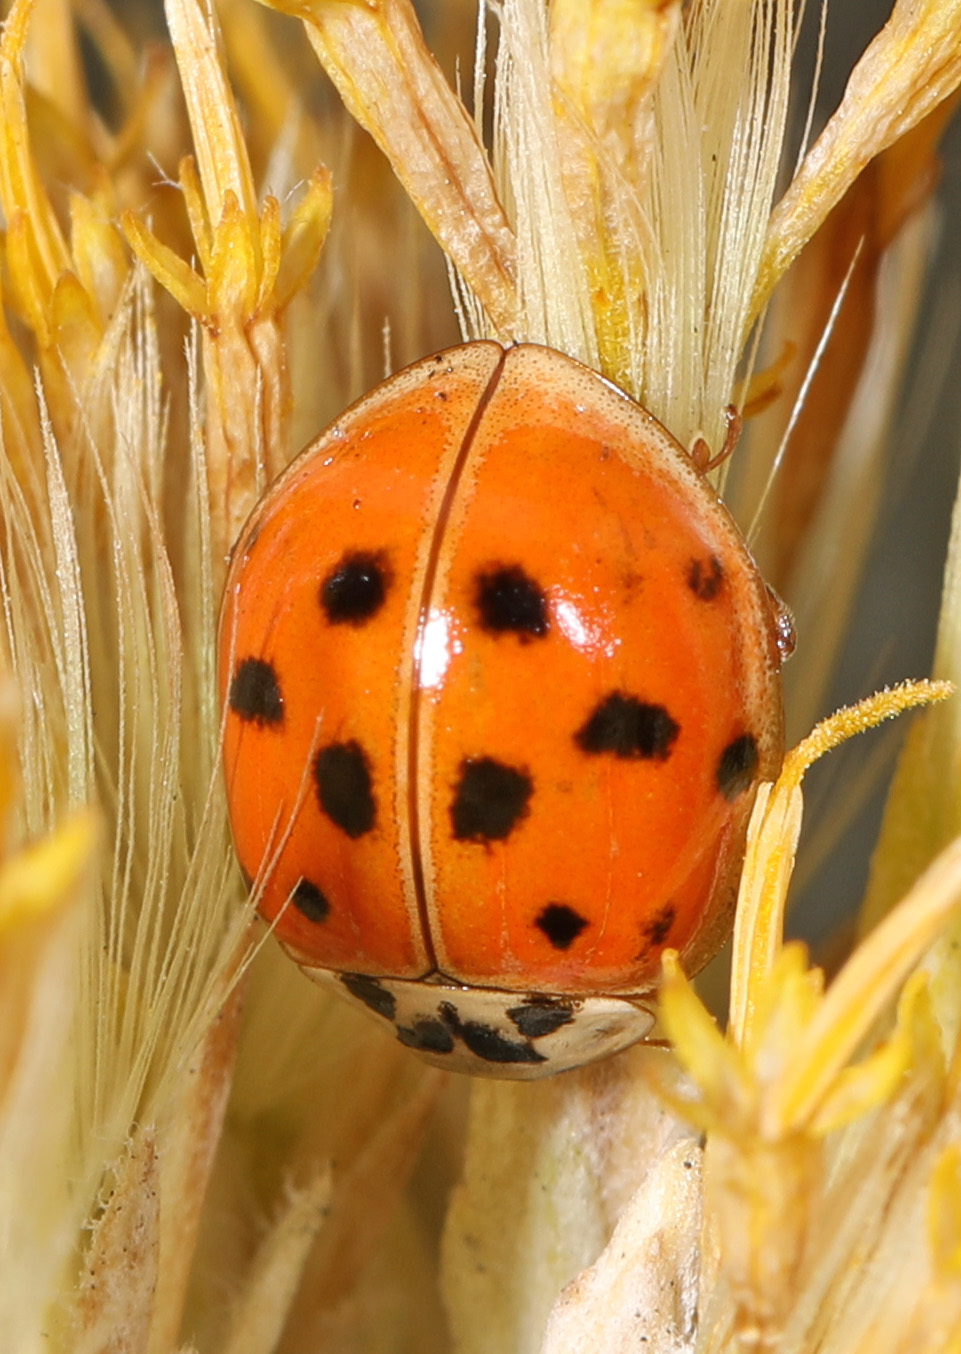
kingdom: Animalia
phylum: Arthropoda
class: Insecta
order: Coleoptera
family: Coccinellidae
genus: Harmonia
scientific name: Harmonia axyridis
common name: Harlequin ladybird
